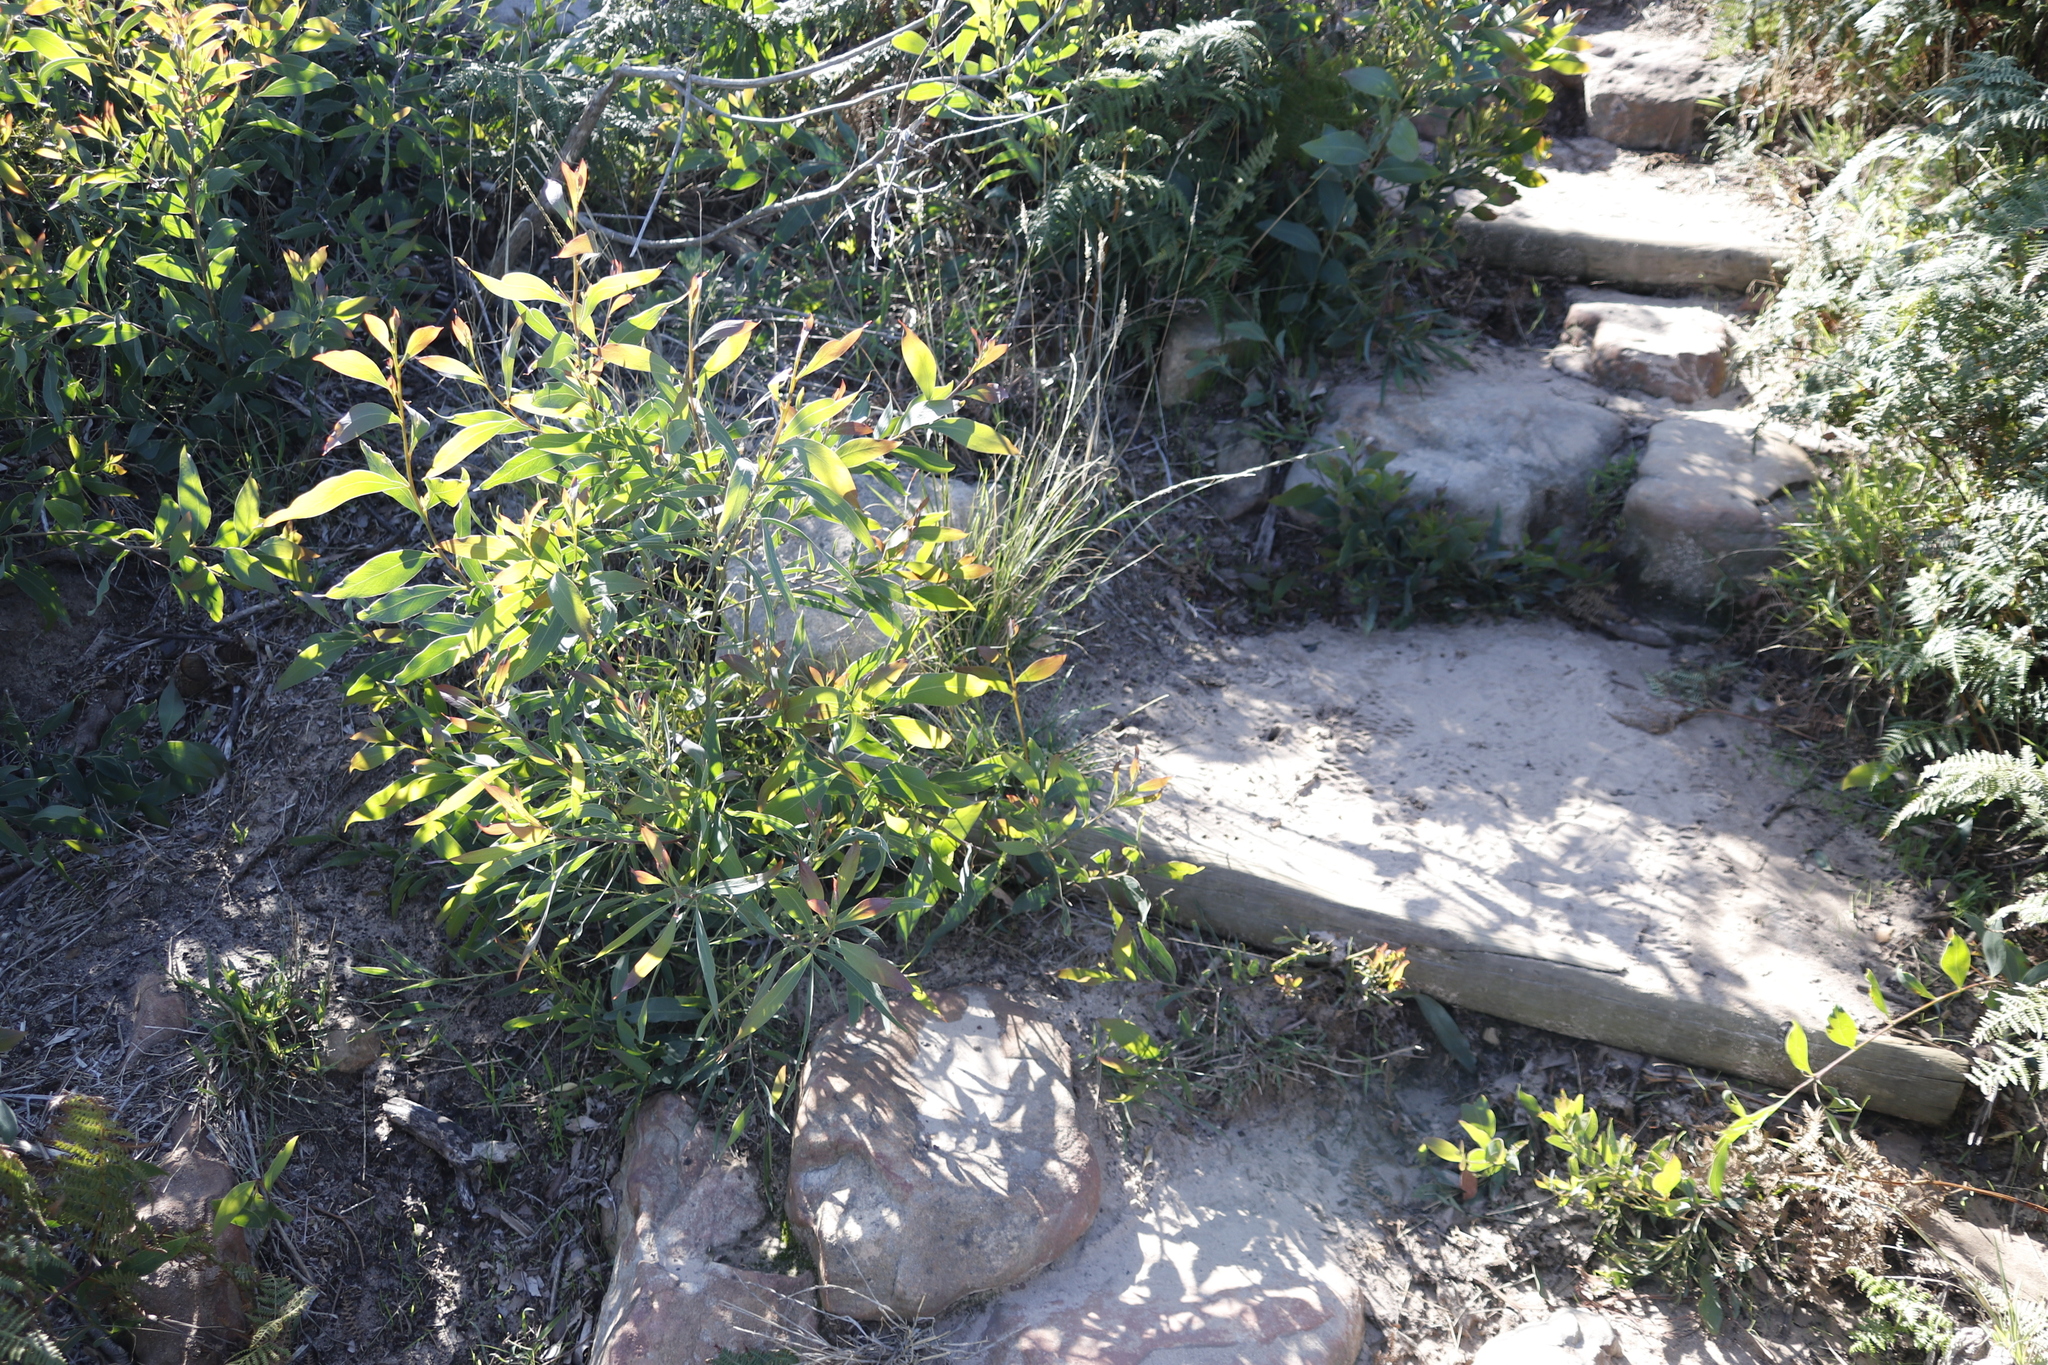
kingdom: Plantae
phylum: Tracheophyta
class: Magnoliopsida
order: Fabales
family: Fabaceae
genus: Acacia
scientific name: Acacia falciformis
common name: Tanning wattle
